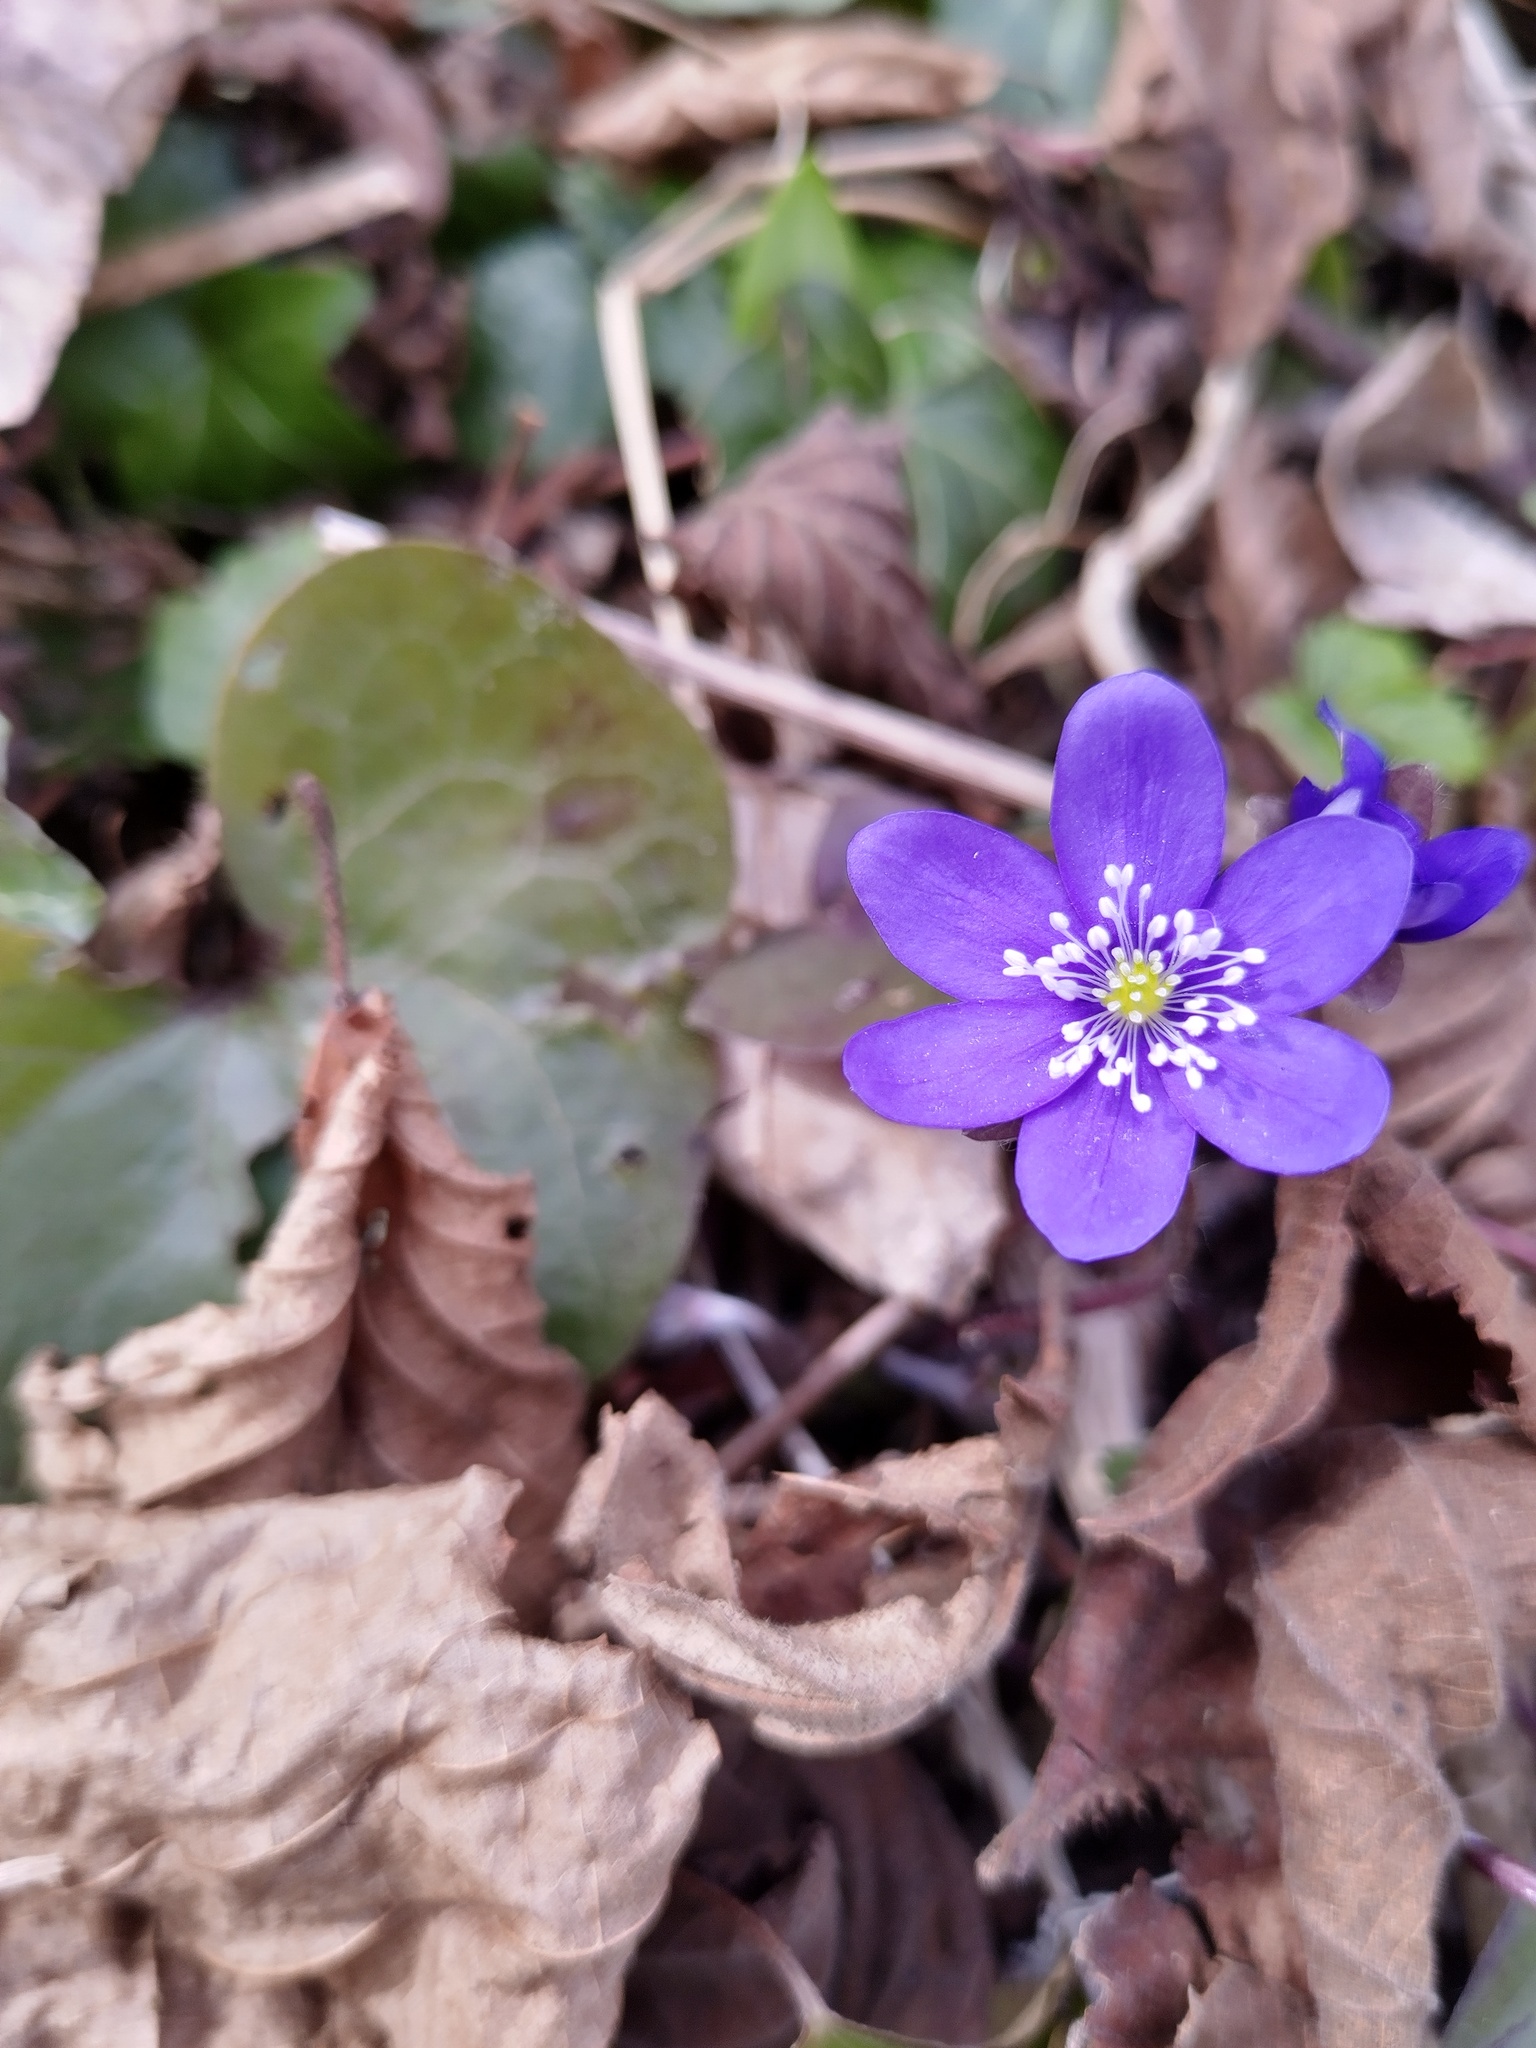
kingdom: Plantae
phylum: Tracheophyta
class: Magnoliopsida
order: Ranunculales
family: Ranunculaceae
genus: Hepatica
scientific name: Hepatica nobilis
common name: Liverleaf
